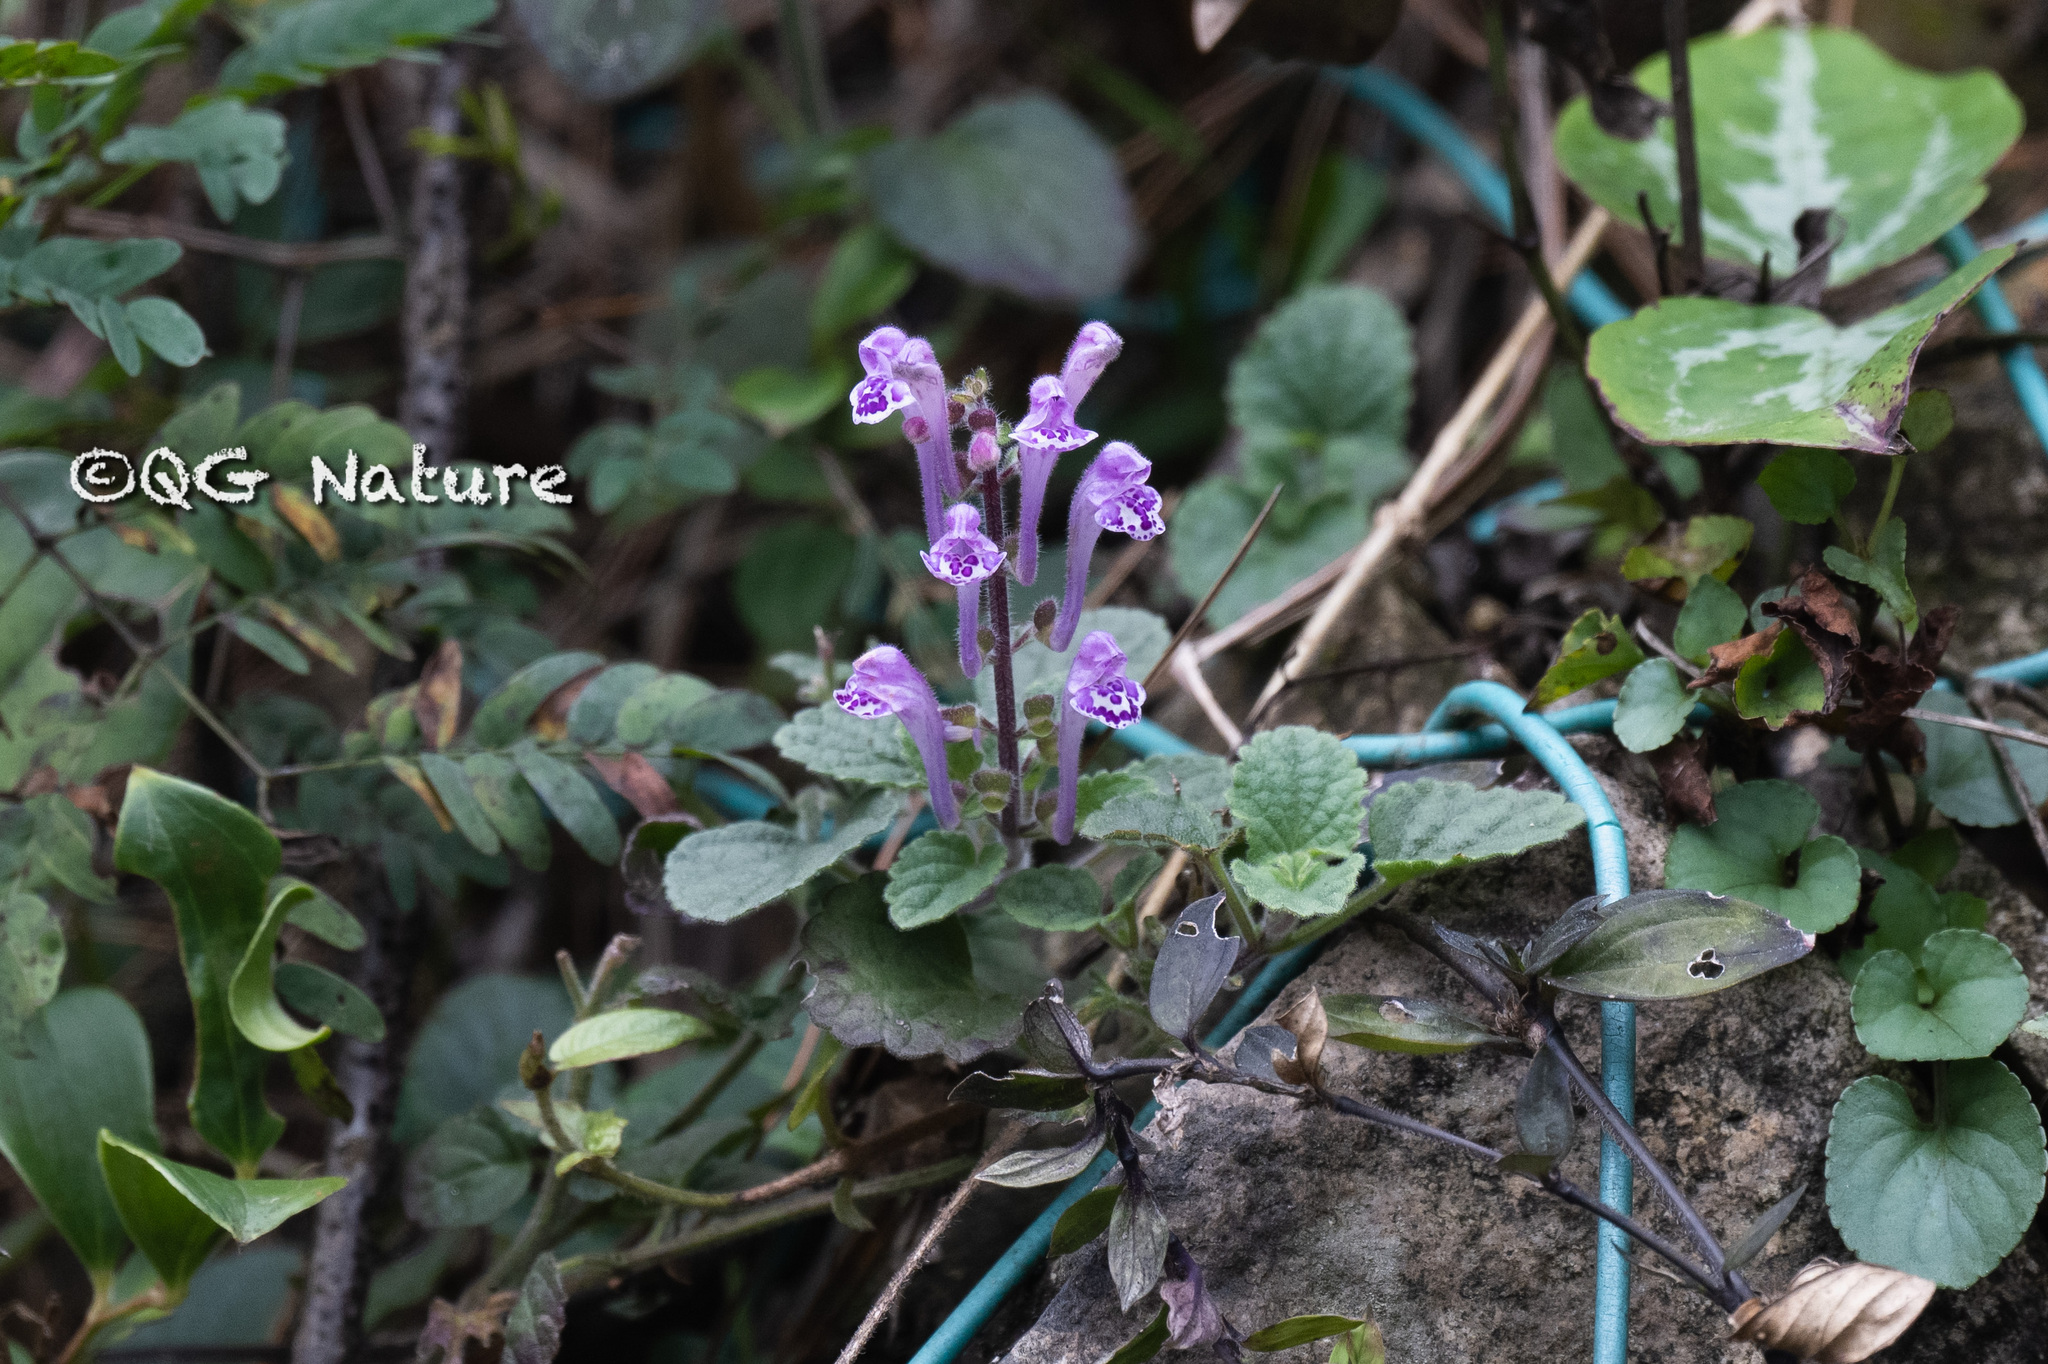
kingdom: Plantae
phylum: Tracheophyta
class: Magnoliopsida
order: Lamiales
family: Lamiaceae
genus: Scutellaria
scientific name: Scutellaria indica
